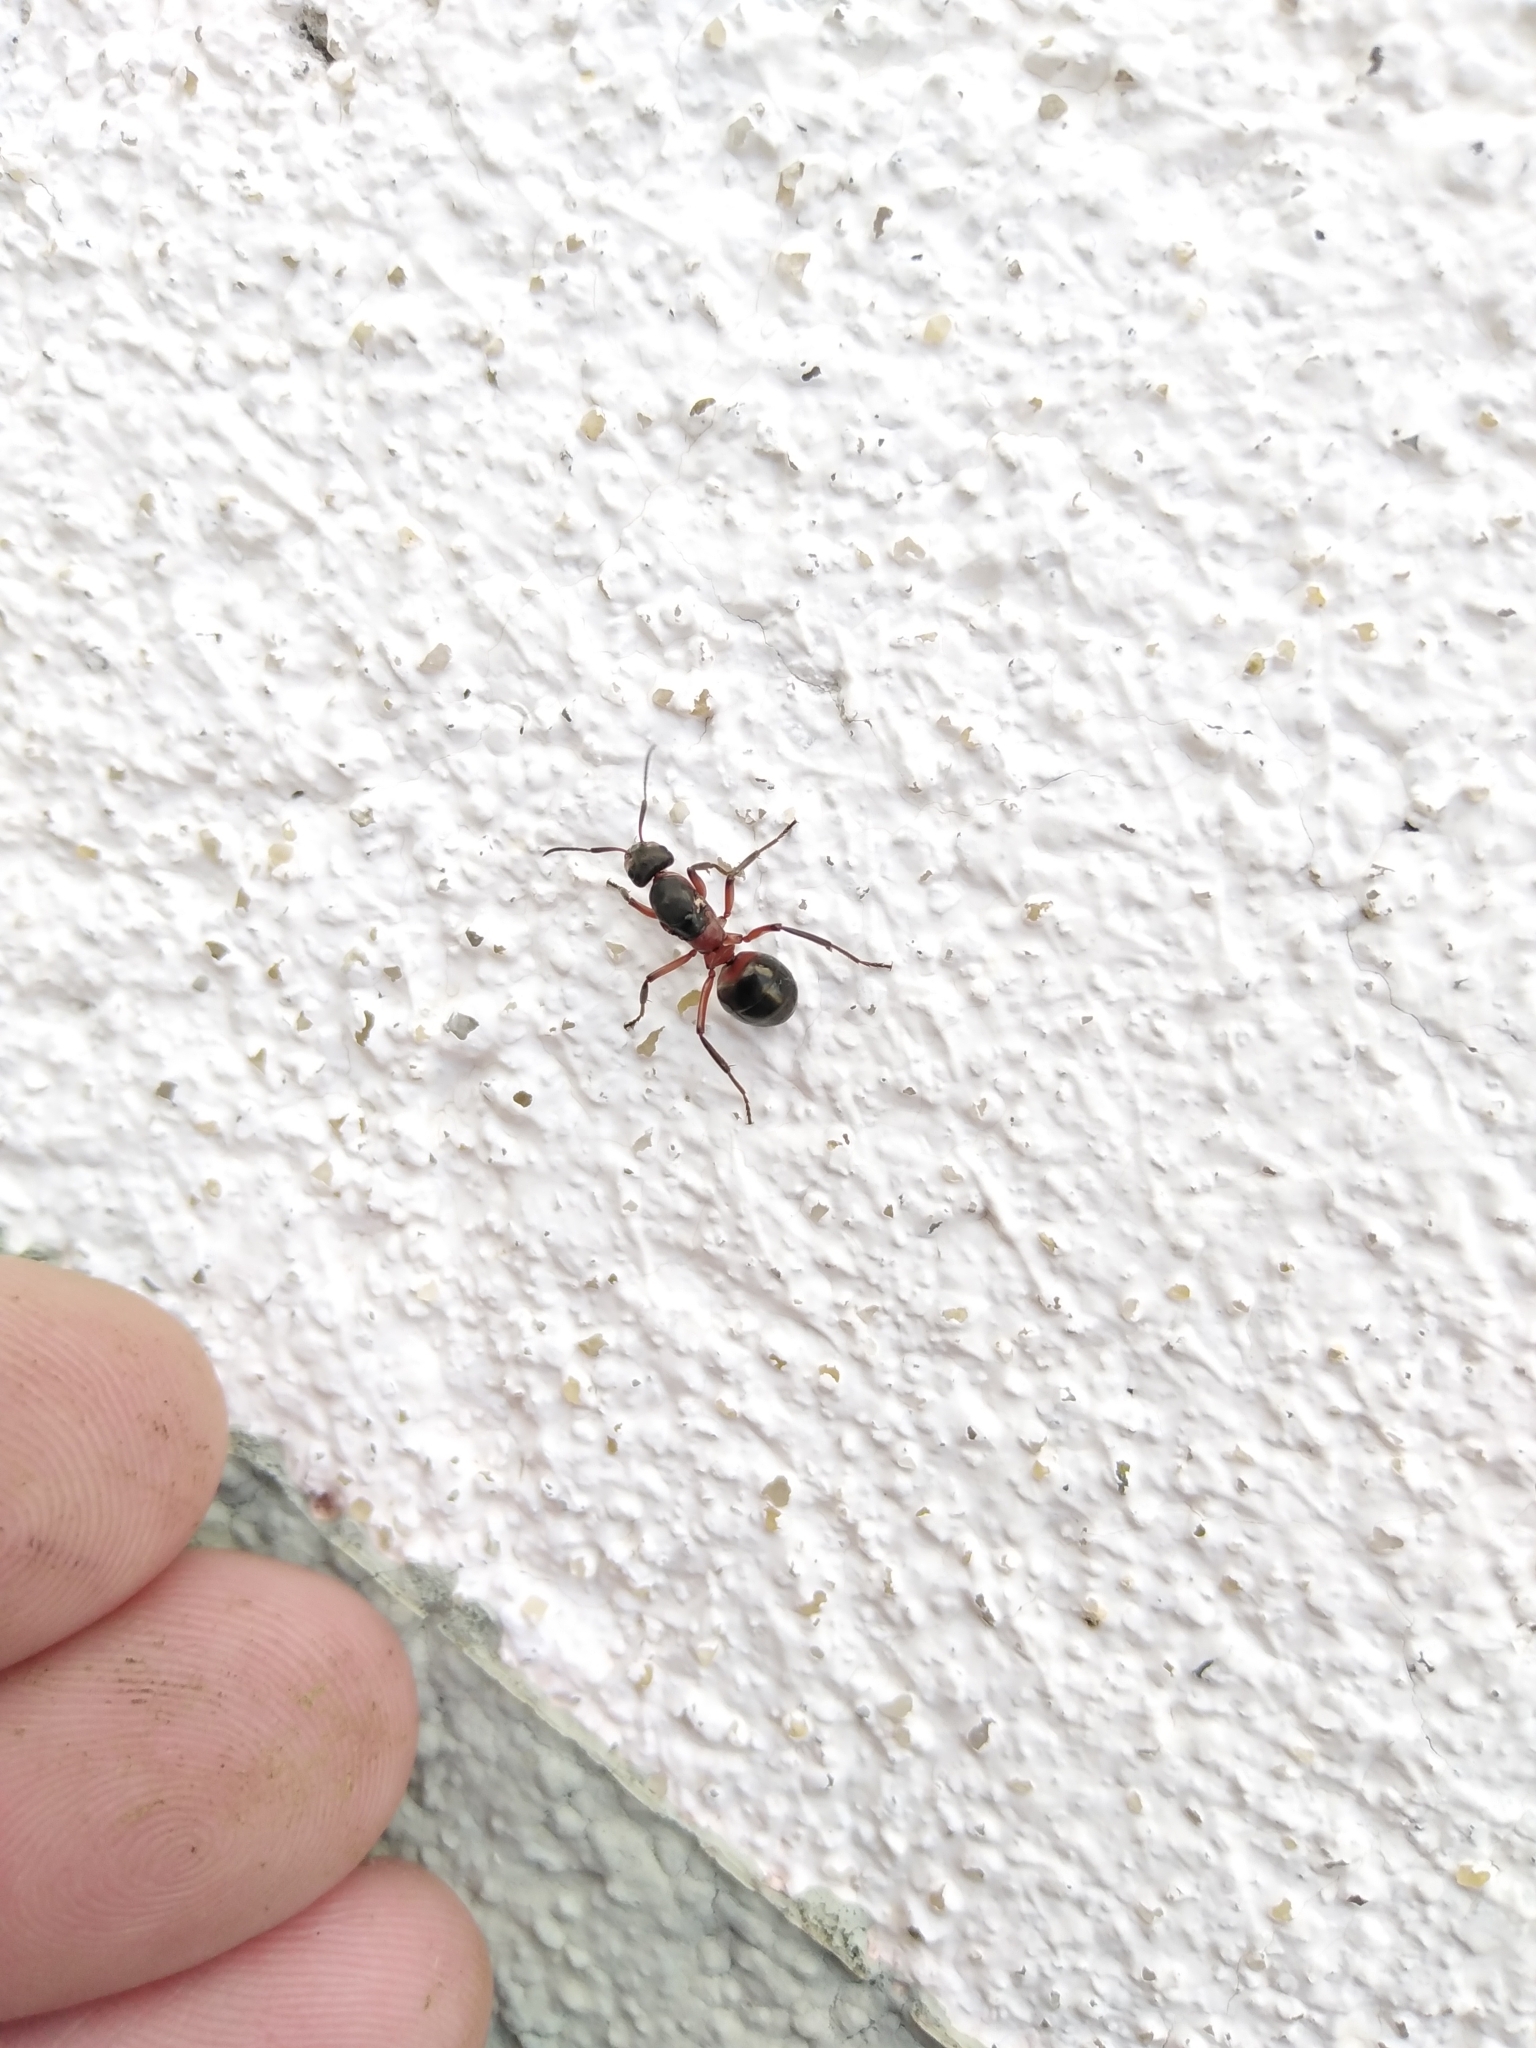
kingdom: Animalia
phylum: Arthropoda
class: Insecta
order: Hymenoptera
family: Formicidae
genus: Formica
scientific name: Formica
